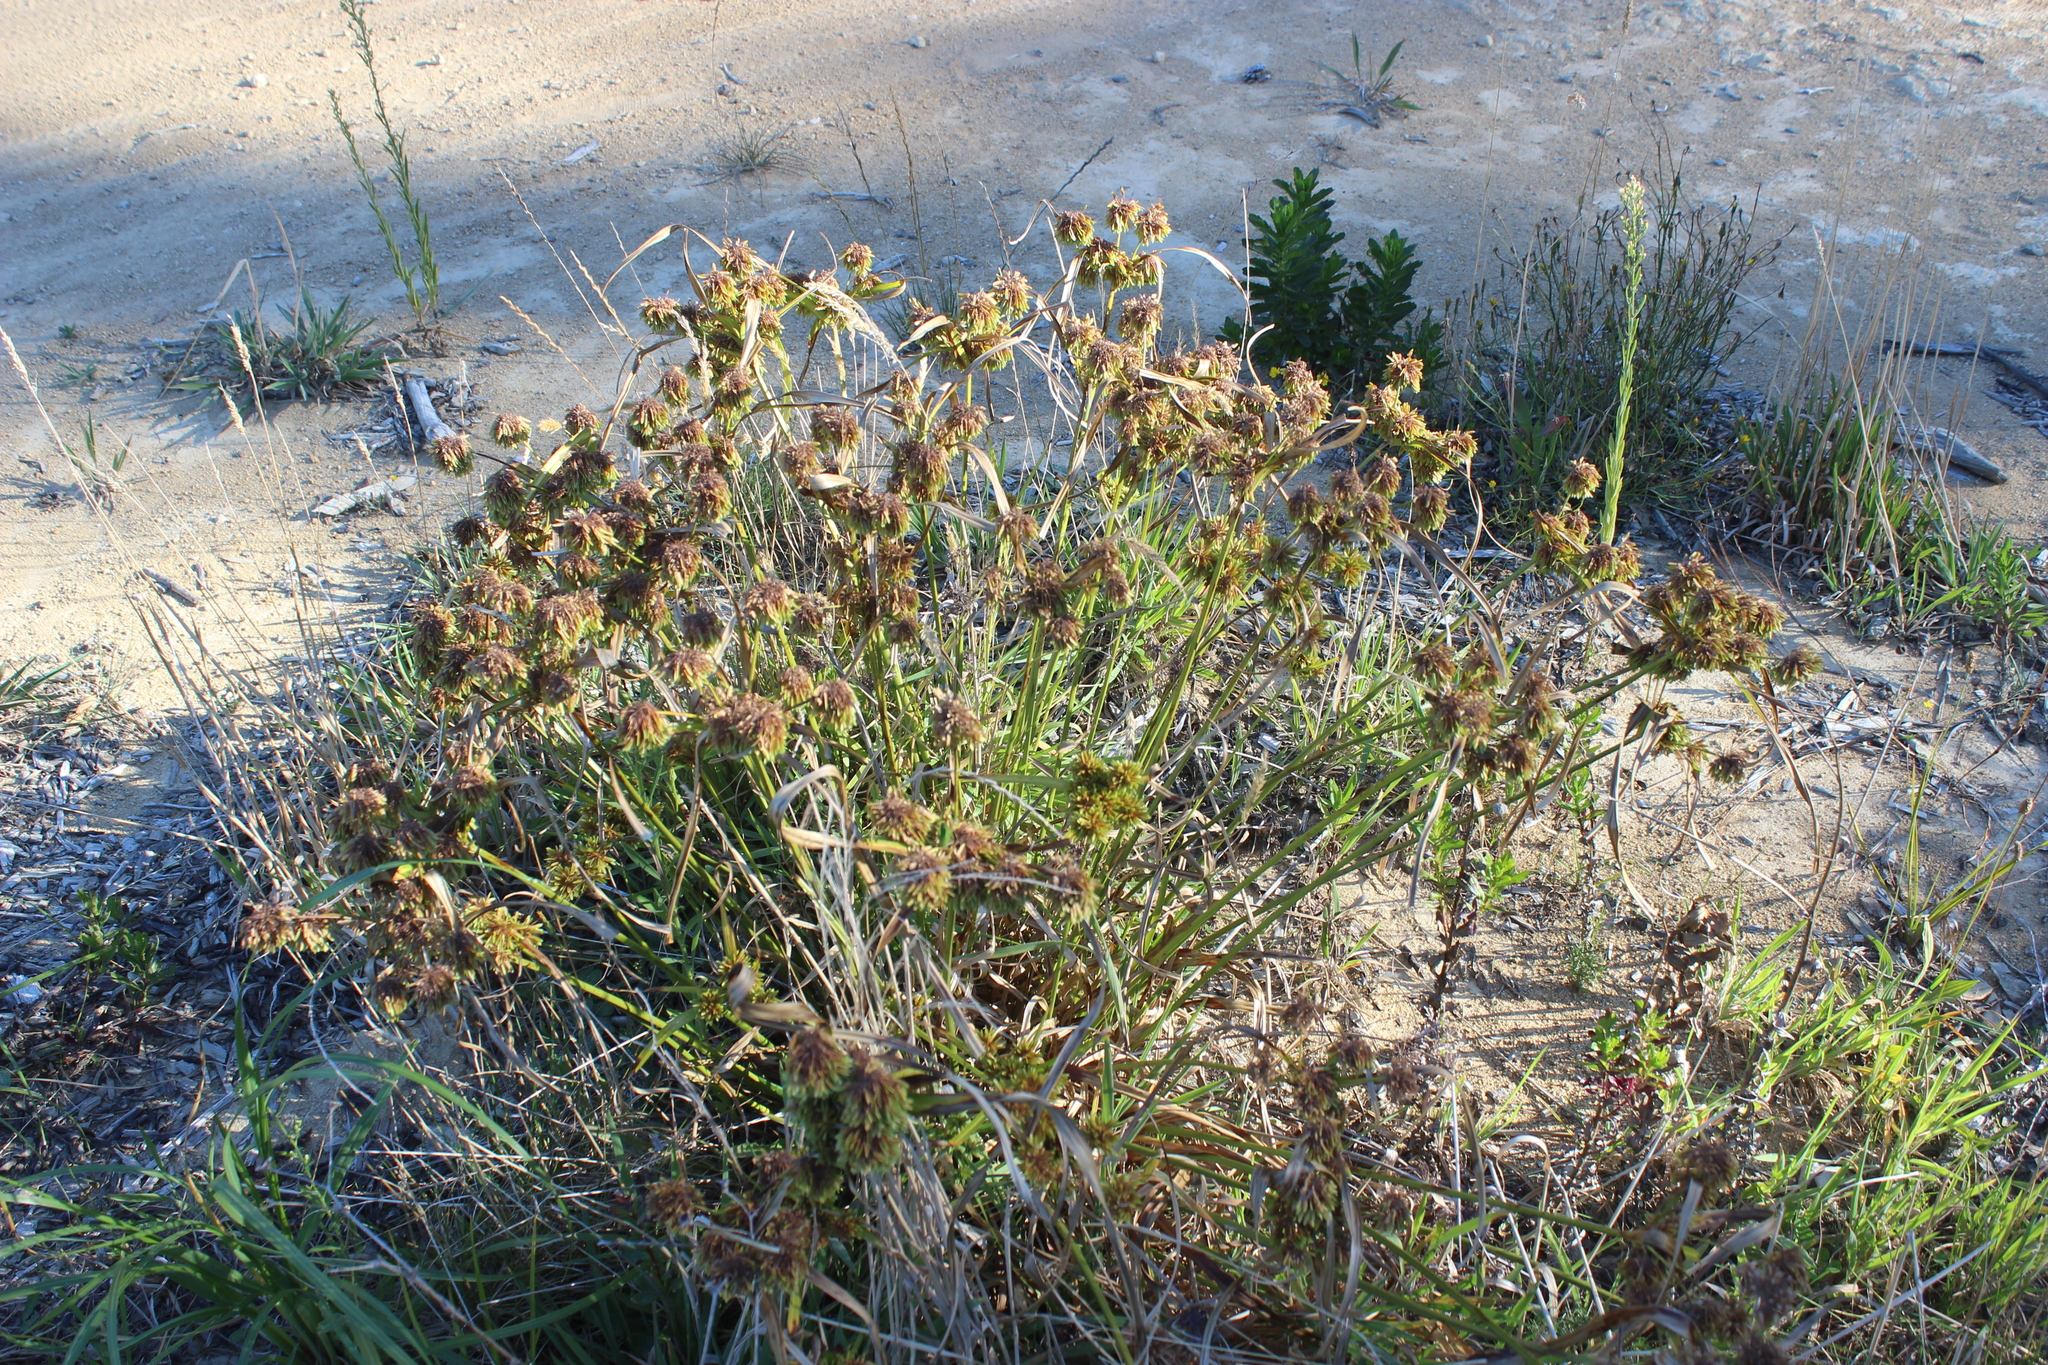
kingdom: Plantae
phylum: Tracheophyta
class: Liliopsida
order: Poales
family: Cyperaceae
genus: Cyperus
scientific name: Cyperus eragrostis
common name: Tall flatsedge
